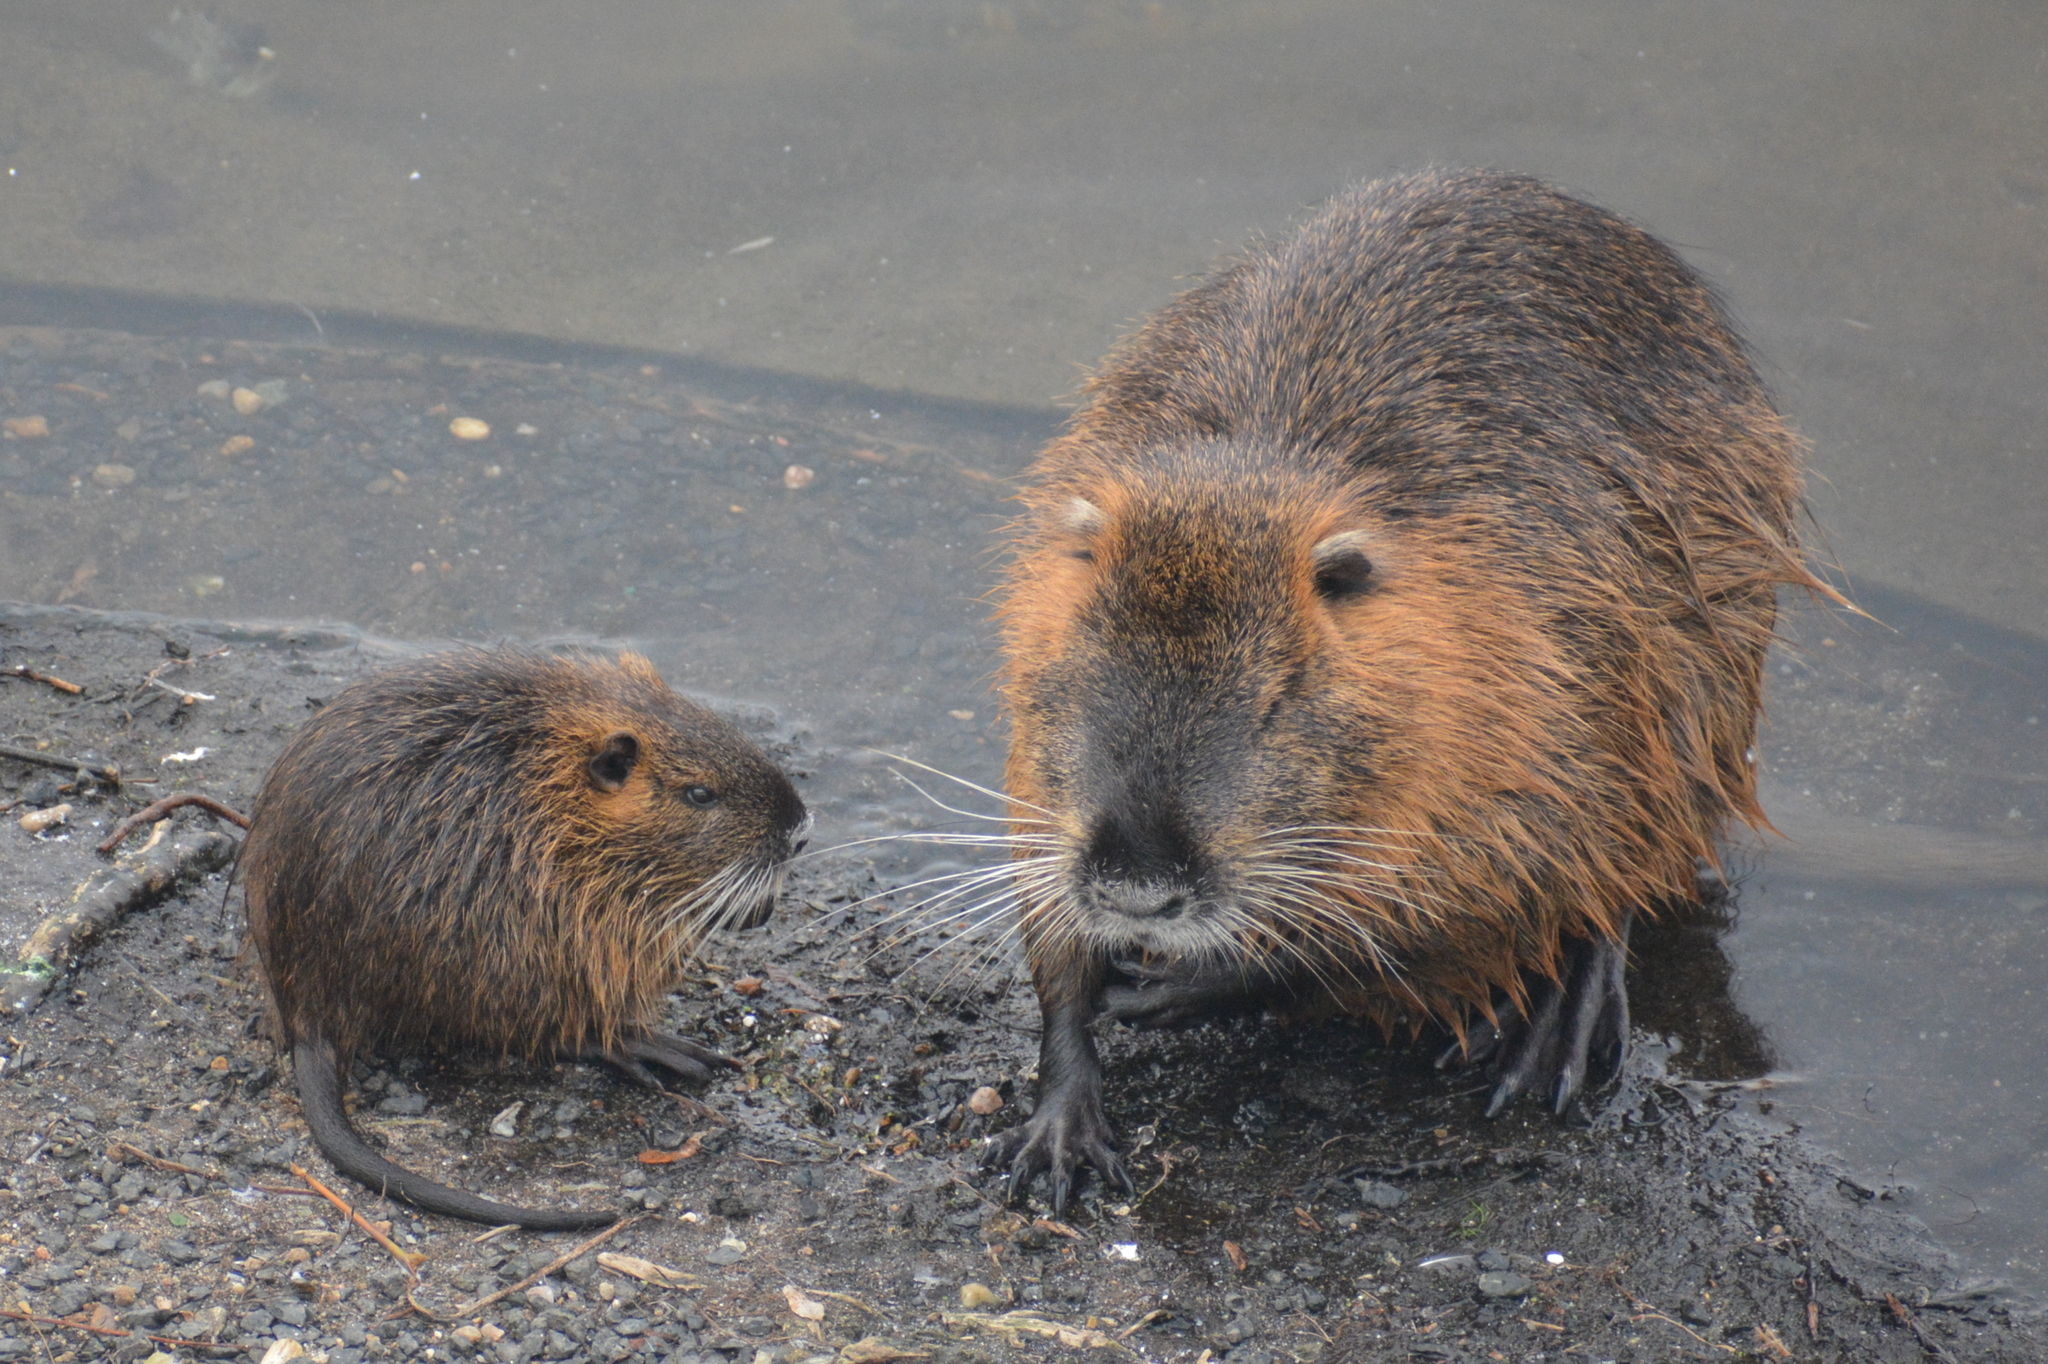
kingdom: Animalia
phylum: Chordata
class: Mammalia
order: Rodentia
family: Myocastoridae
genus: Myocastor
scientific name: Myocastor coypus
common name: Coypu
